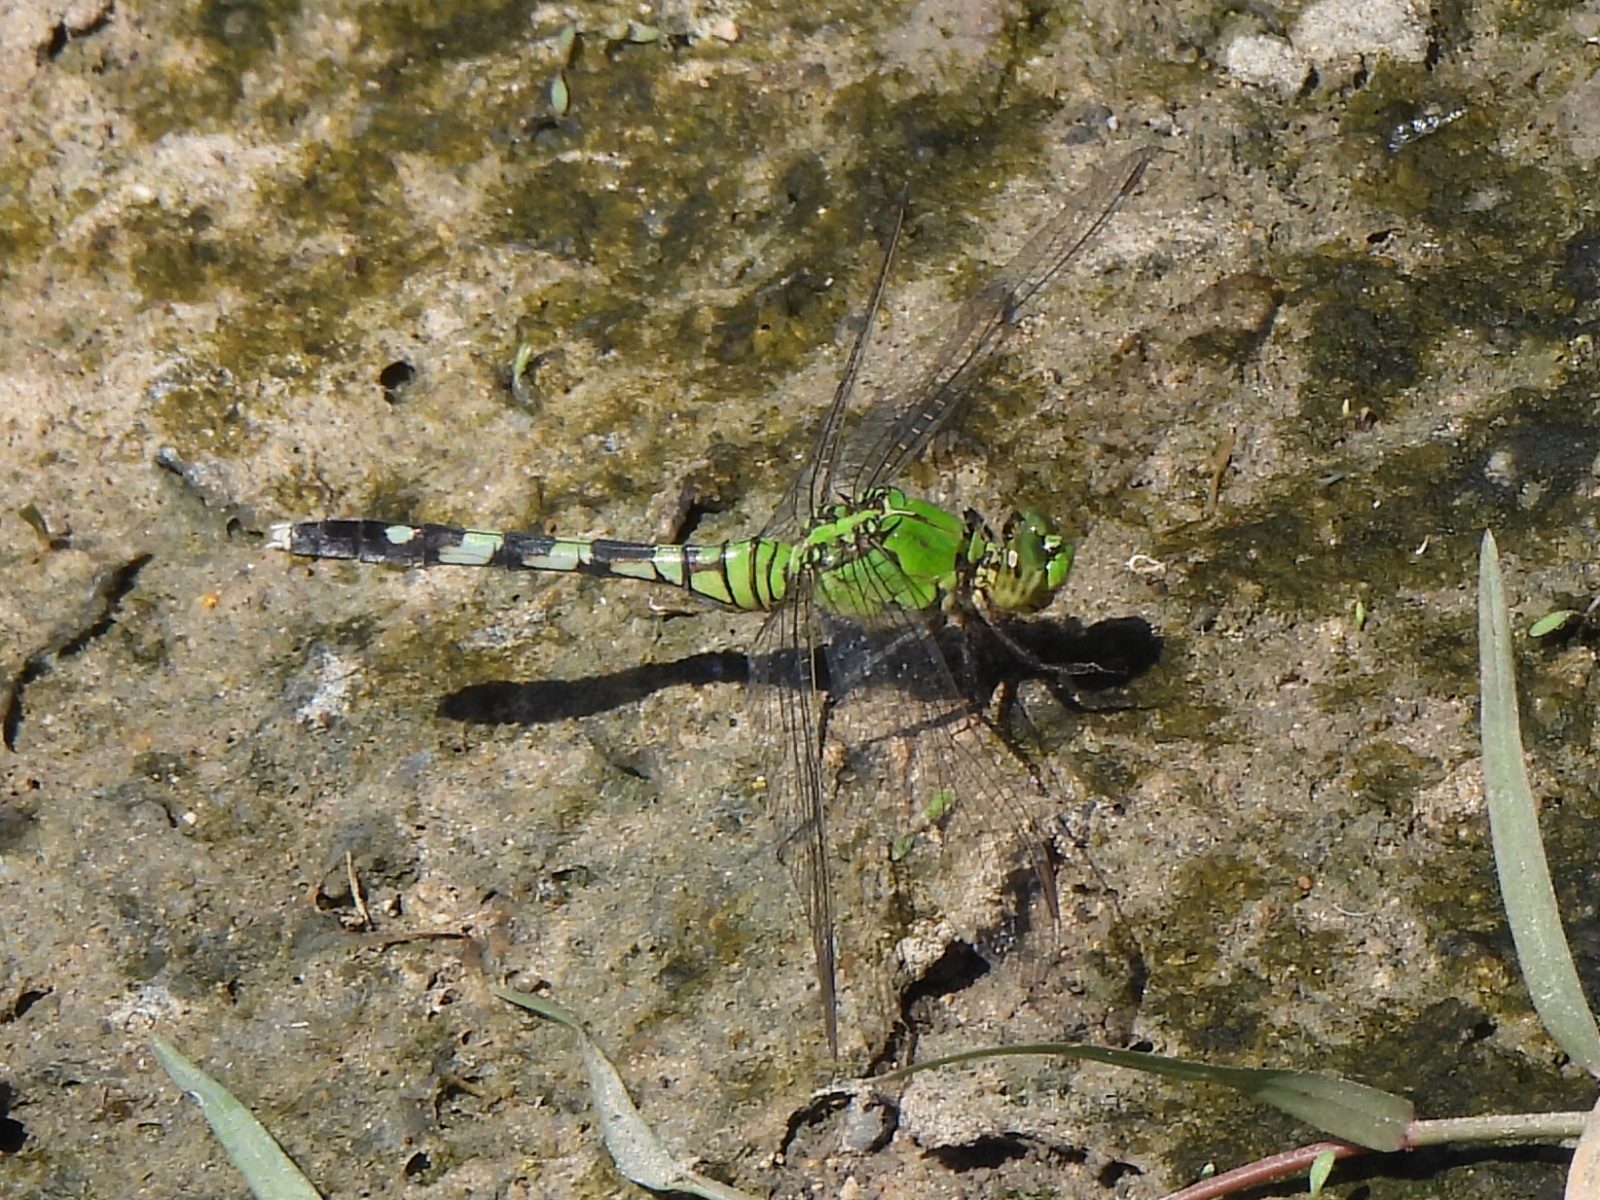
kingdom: Animalia
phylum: Arthropoda
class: Insecta
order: Odonata
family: Libellulidae
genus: Erythemis
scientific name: Erythemis simplicicollis
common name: Eastern pondhawk
